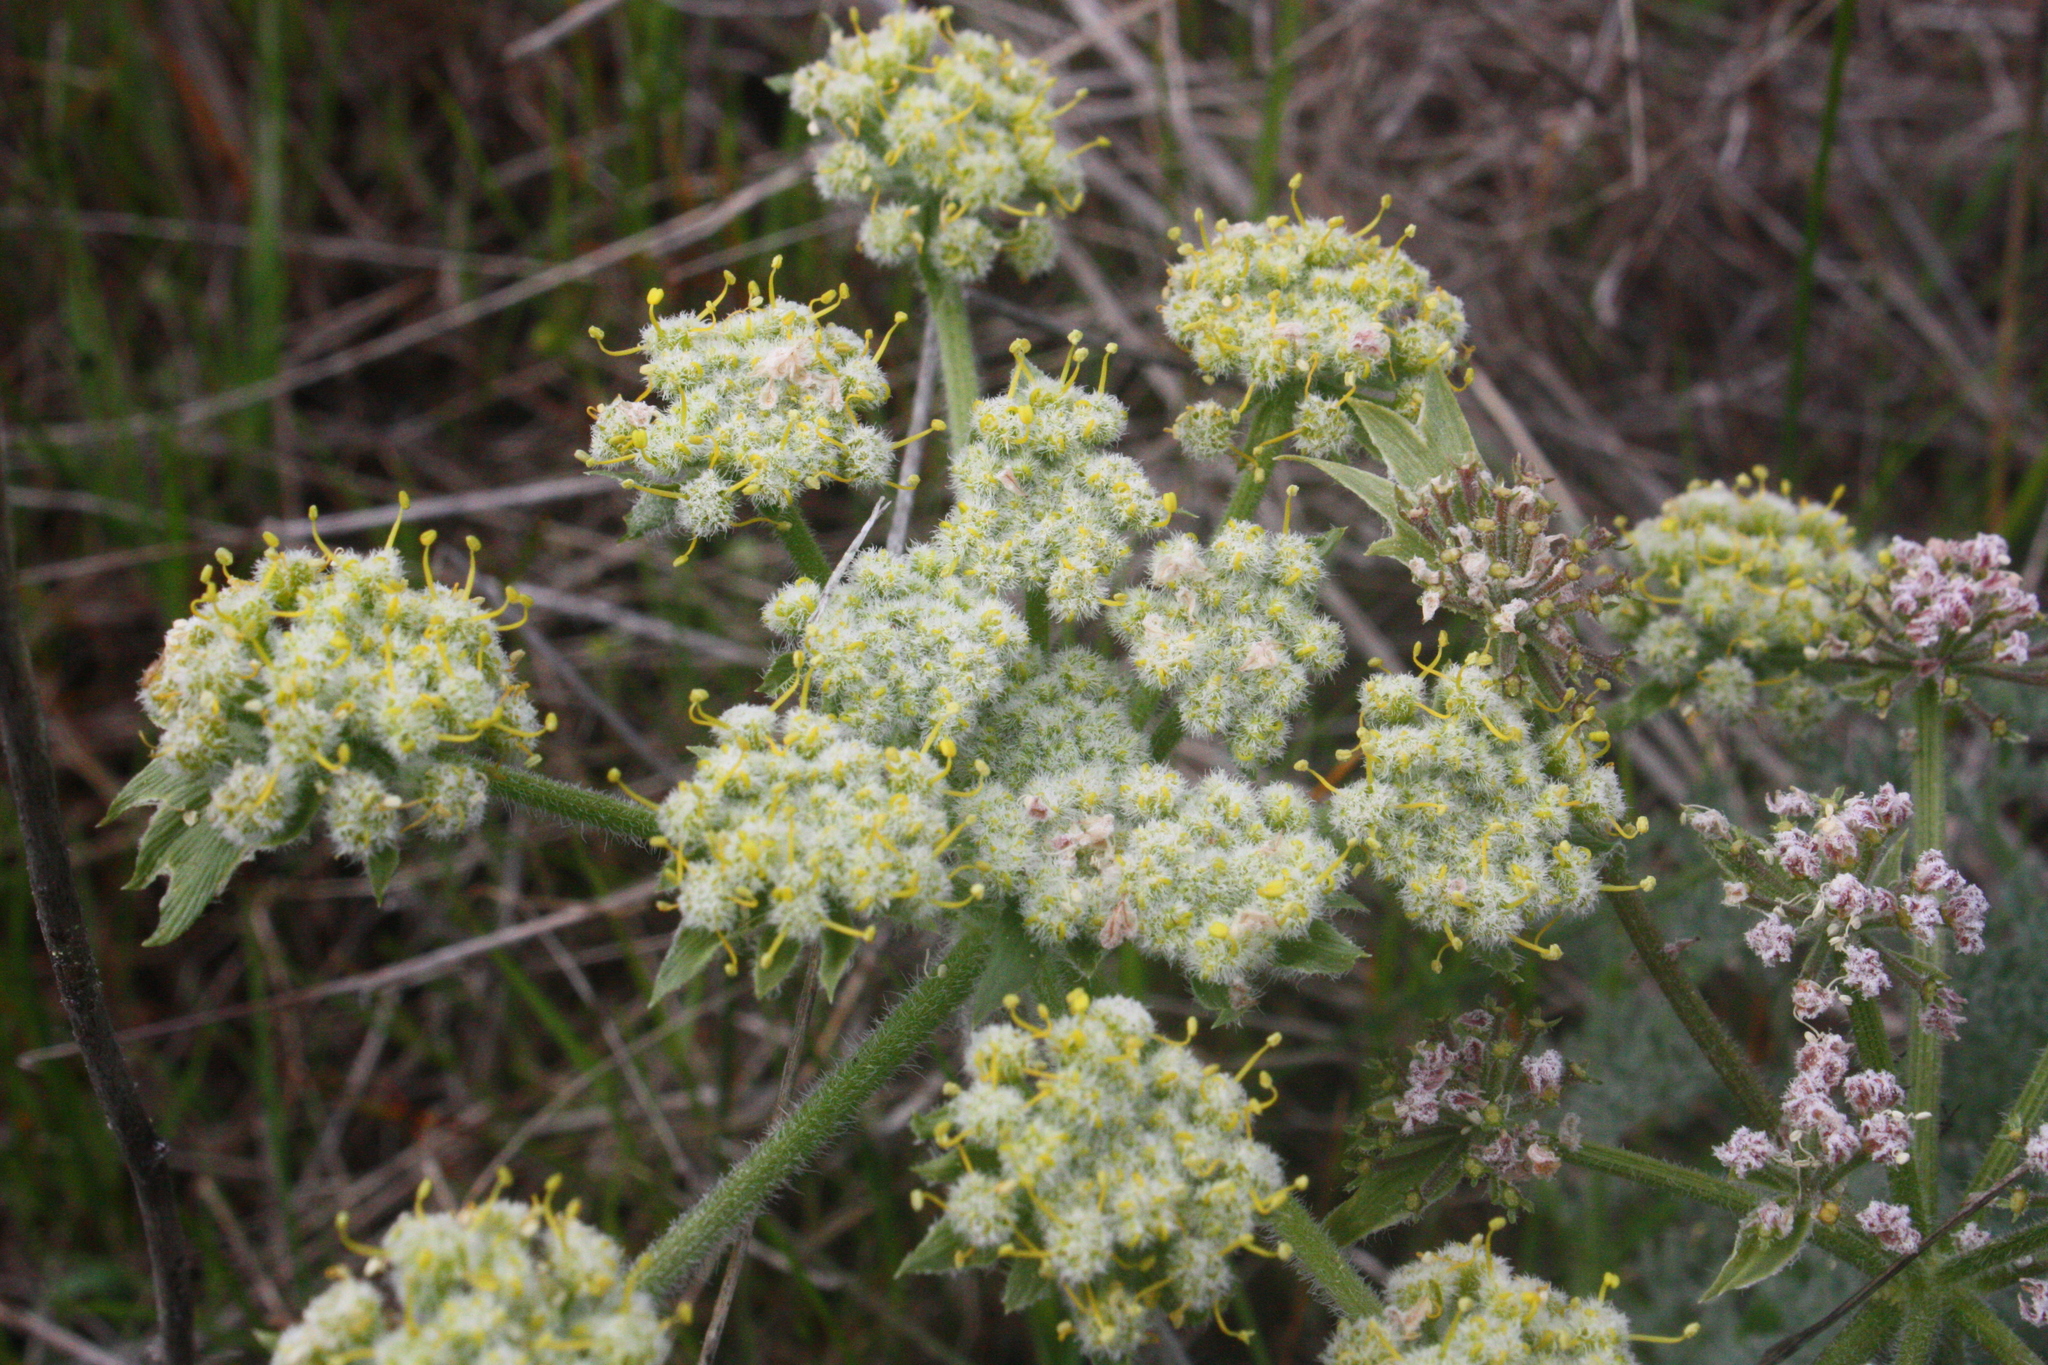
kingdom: Plantae
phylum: Tracheophyta
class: Magnoliopsida
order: Apiales
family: Apiaceae
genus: Lomatium
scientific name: Lomatium dasycarpum
